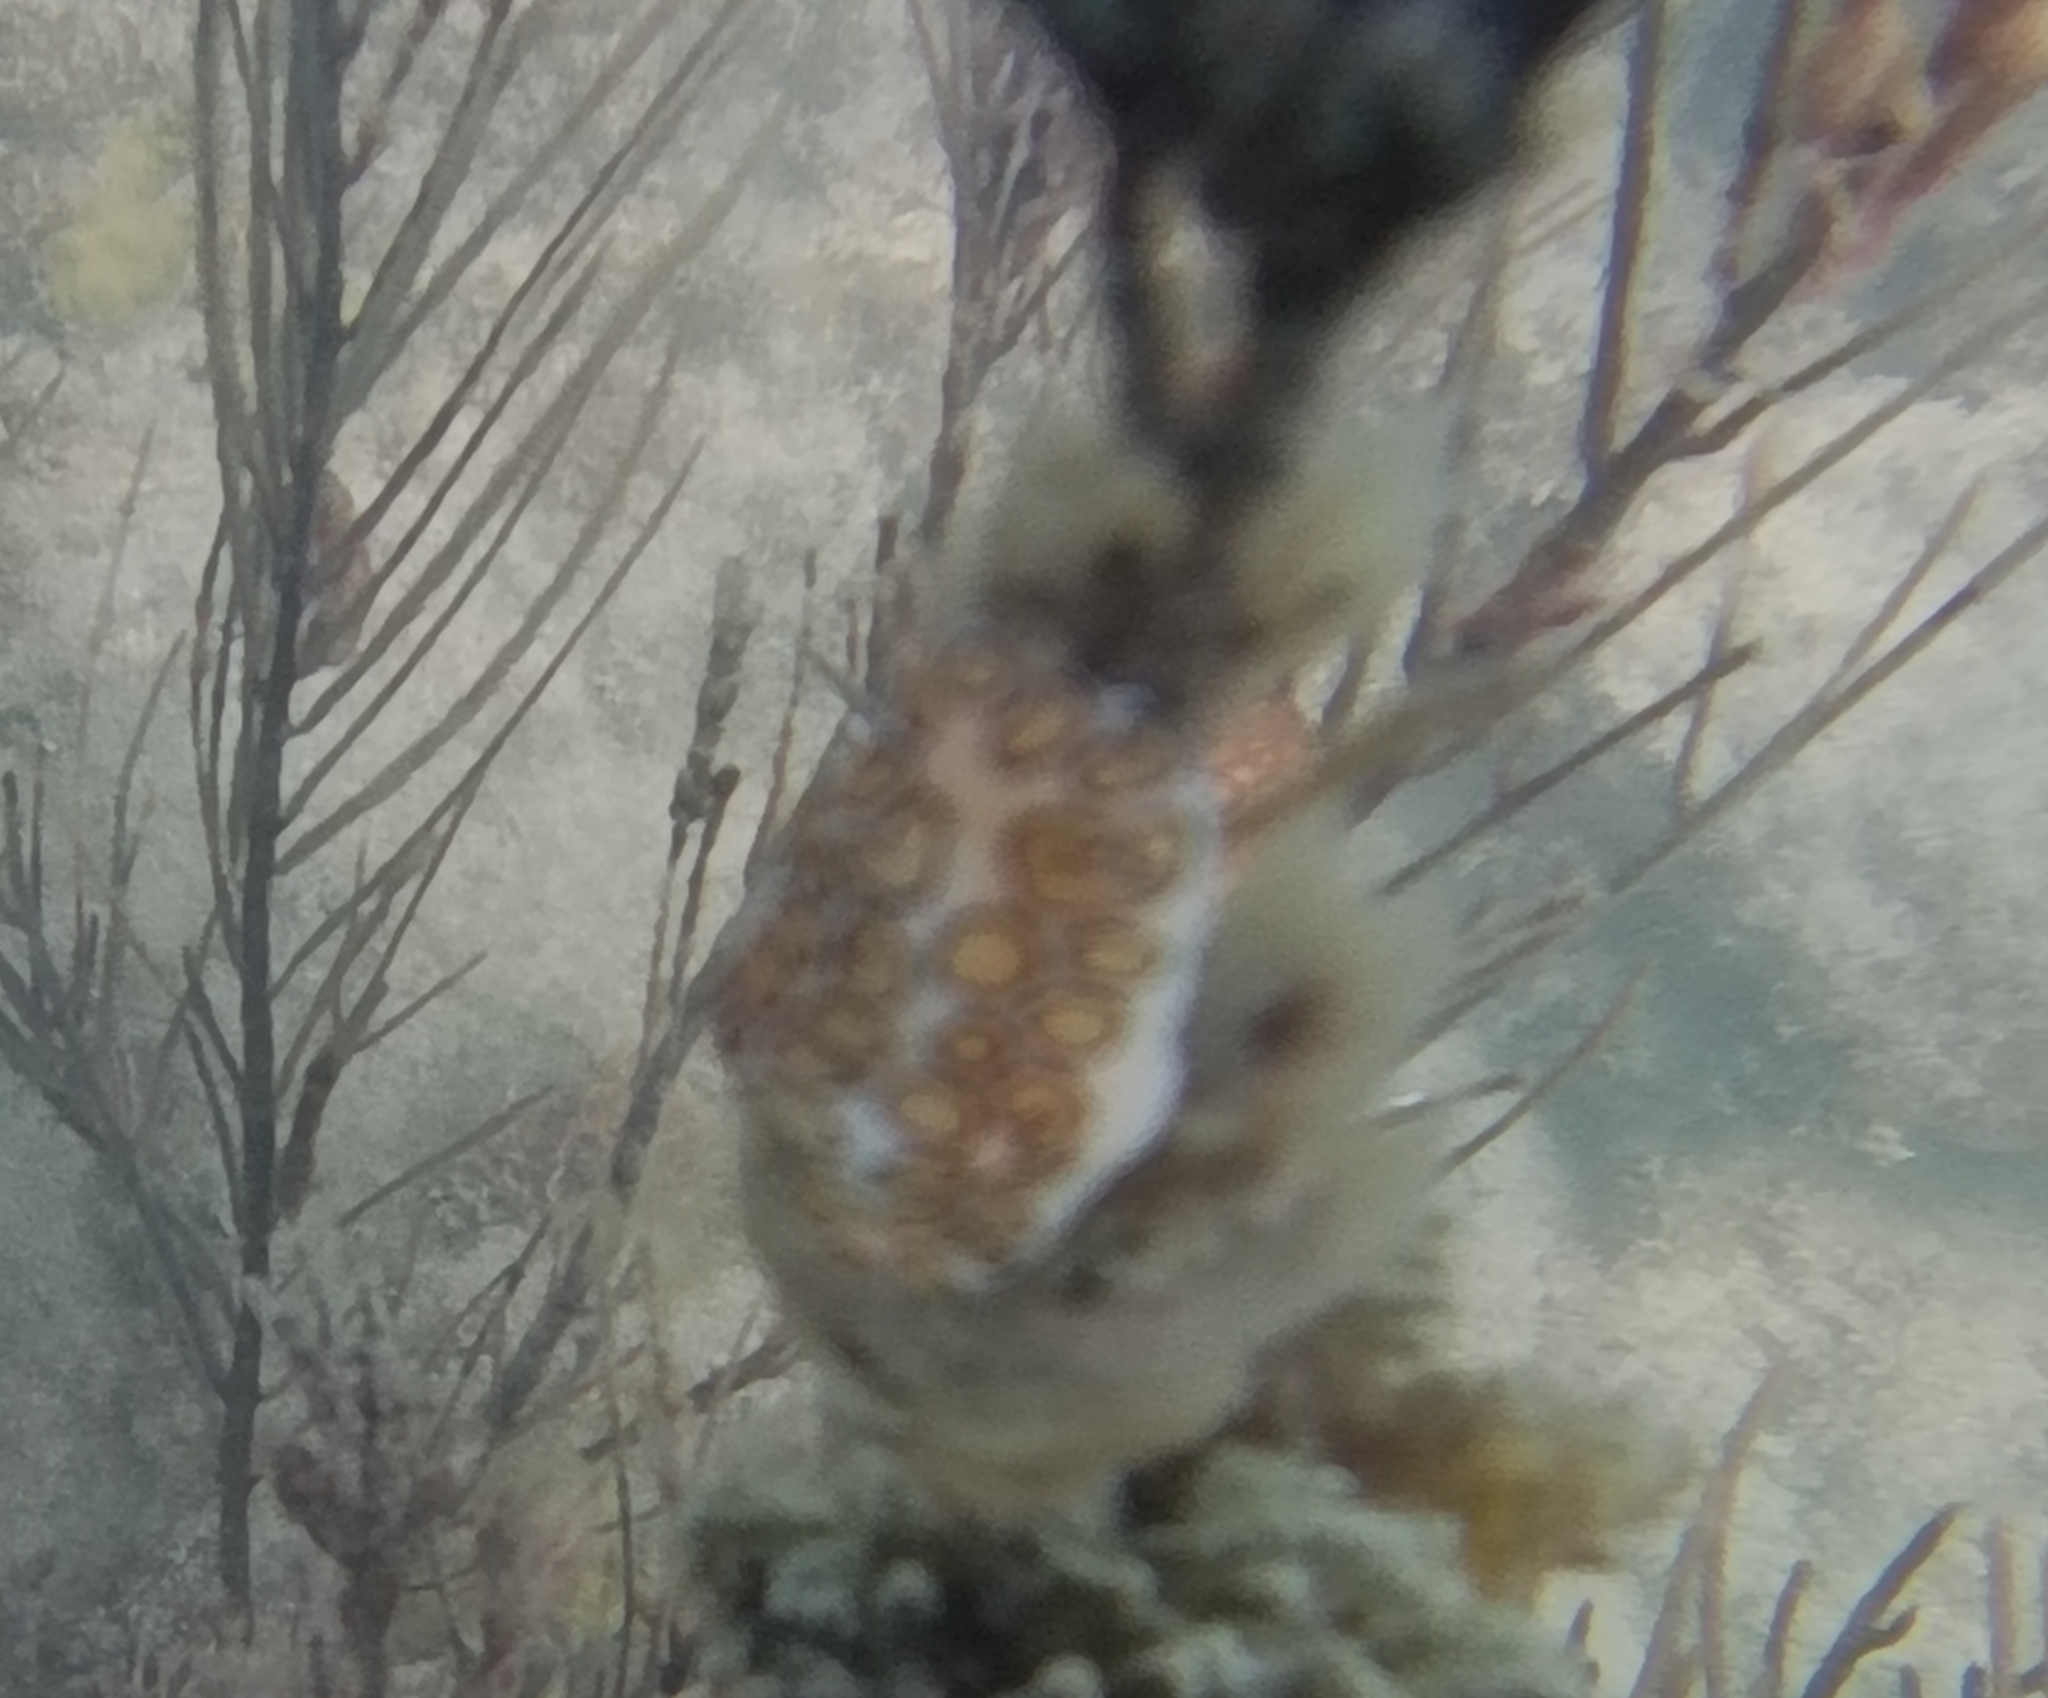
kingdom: Animalia
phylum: Mollusca
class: Gastropoda
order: Littorinimorpha
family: Ovulidae
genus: Cyphoma
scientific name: Cyphoma gibbosum
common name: Flamingo tongue
